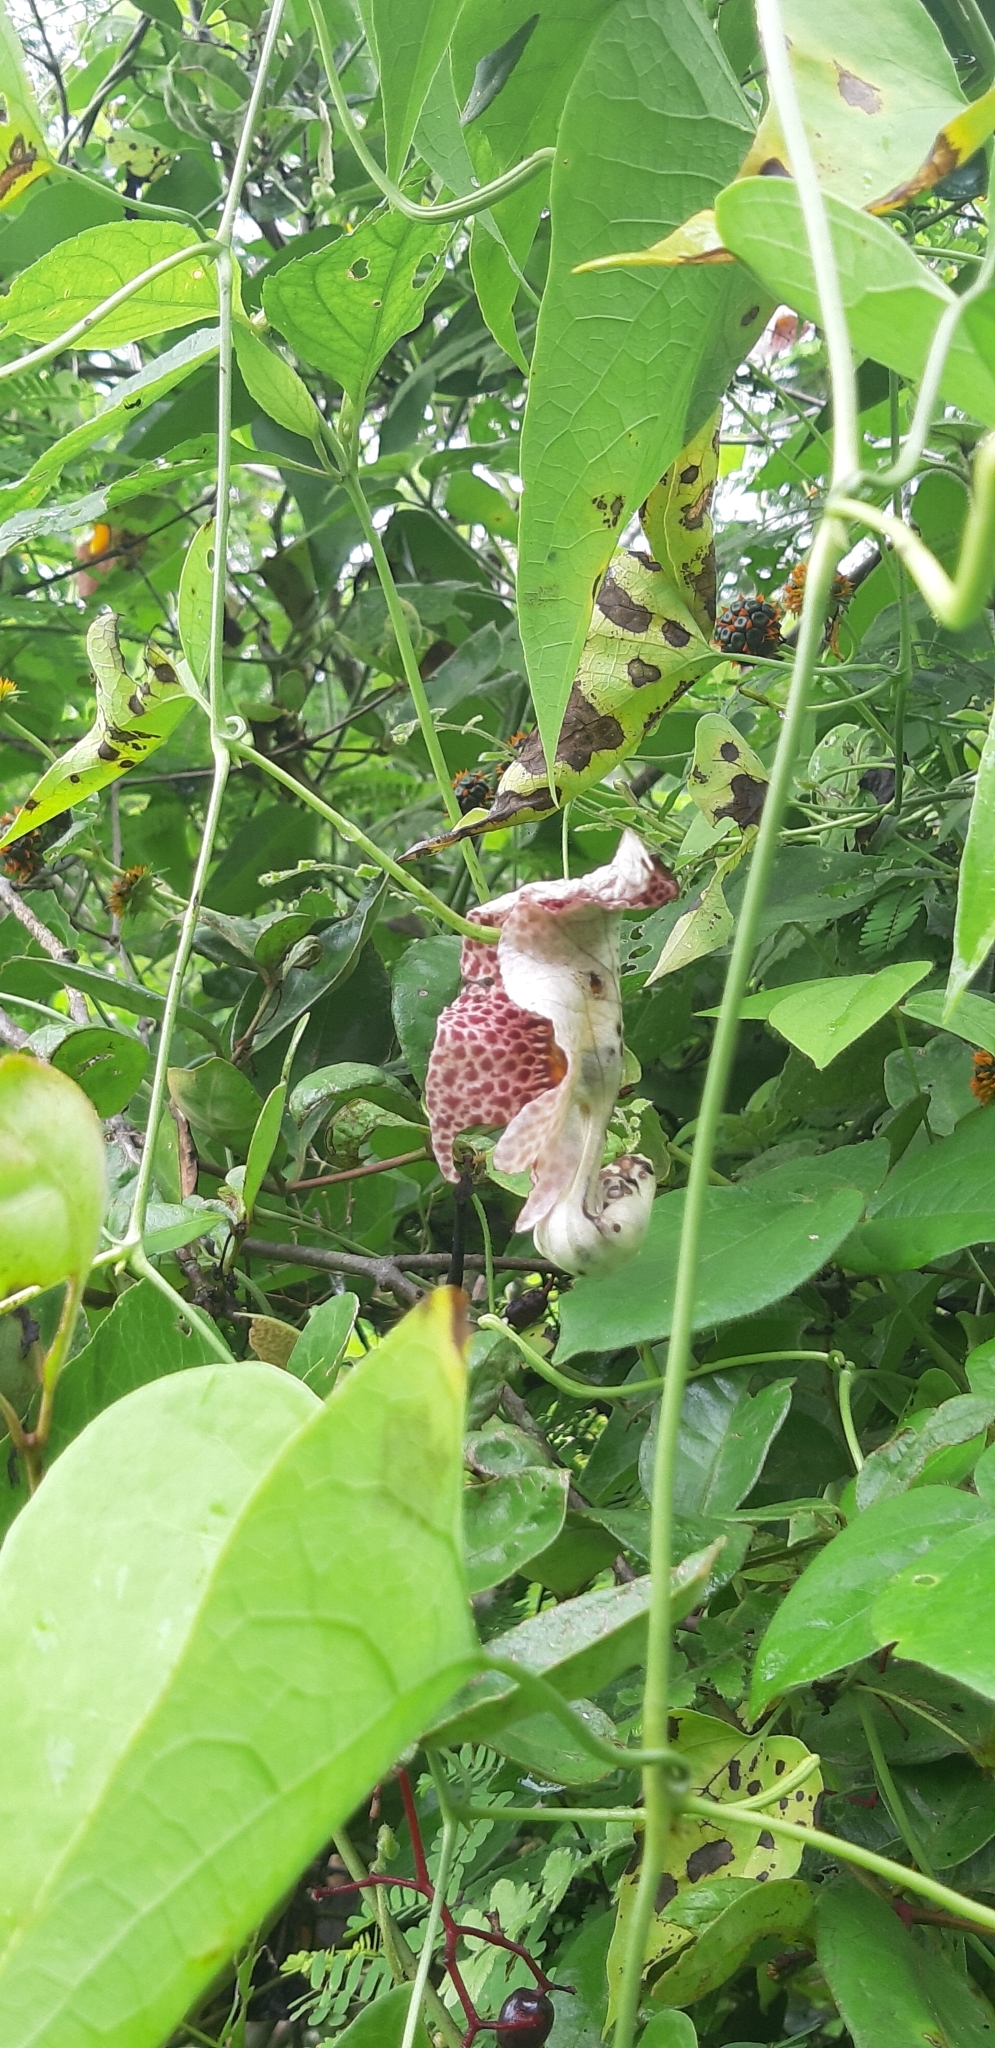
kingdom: Plantae
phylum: Tracheophyta
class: Magnoliopsida
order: Piperales
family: Aristolochiaceae
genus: Aristolochia
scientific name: Aristolochia odoratissima
